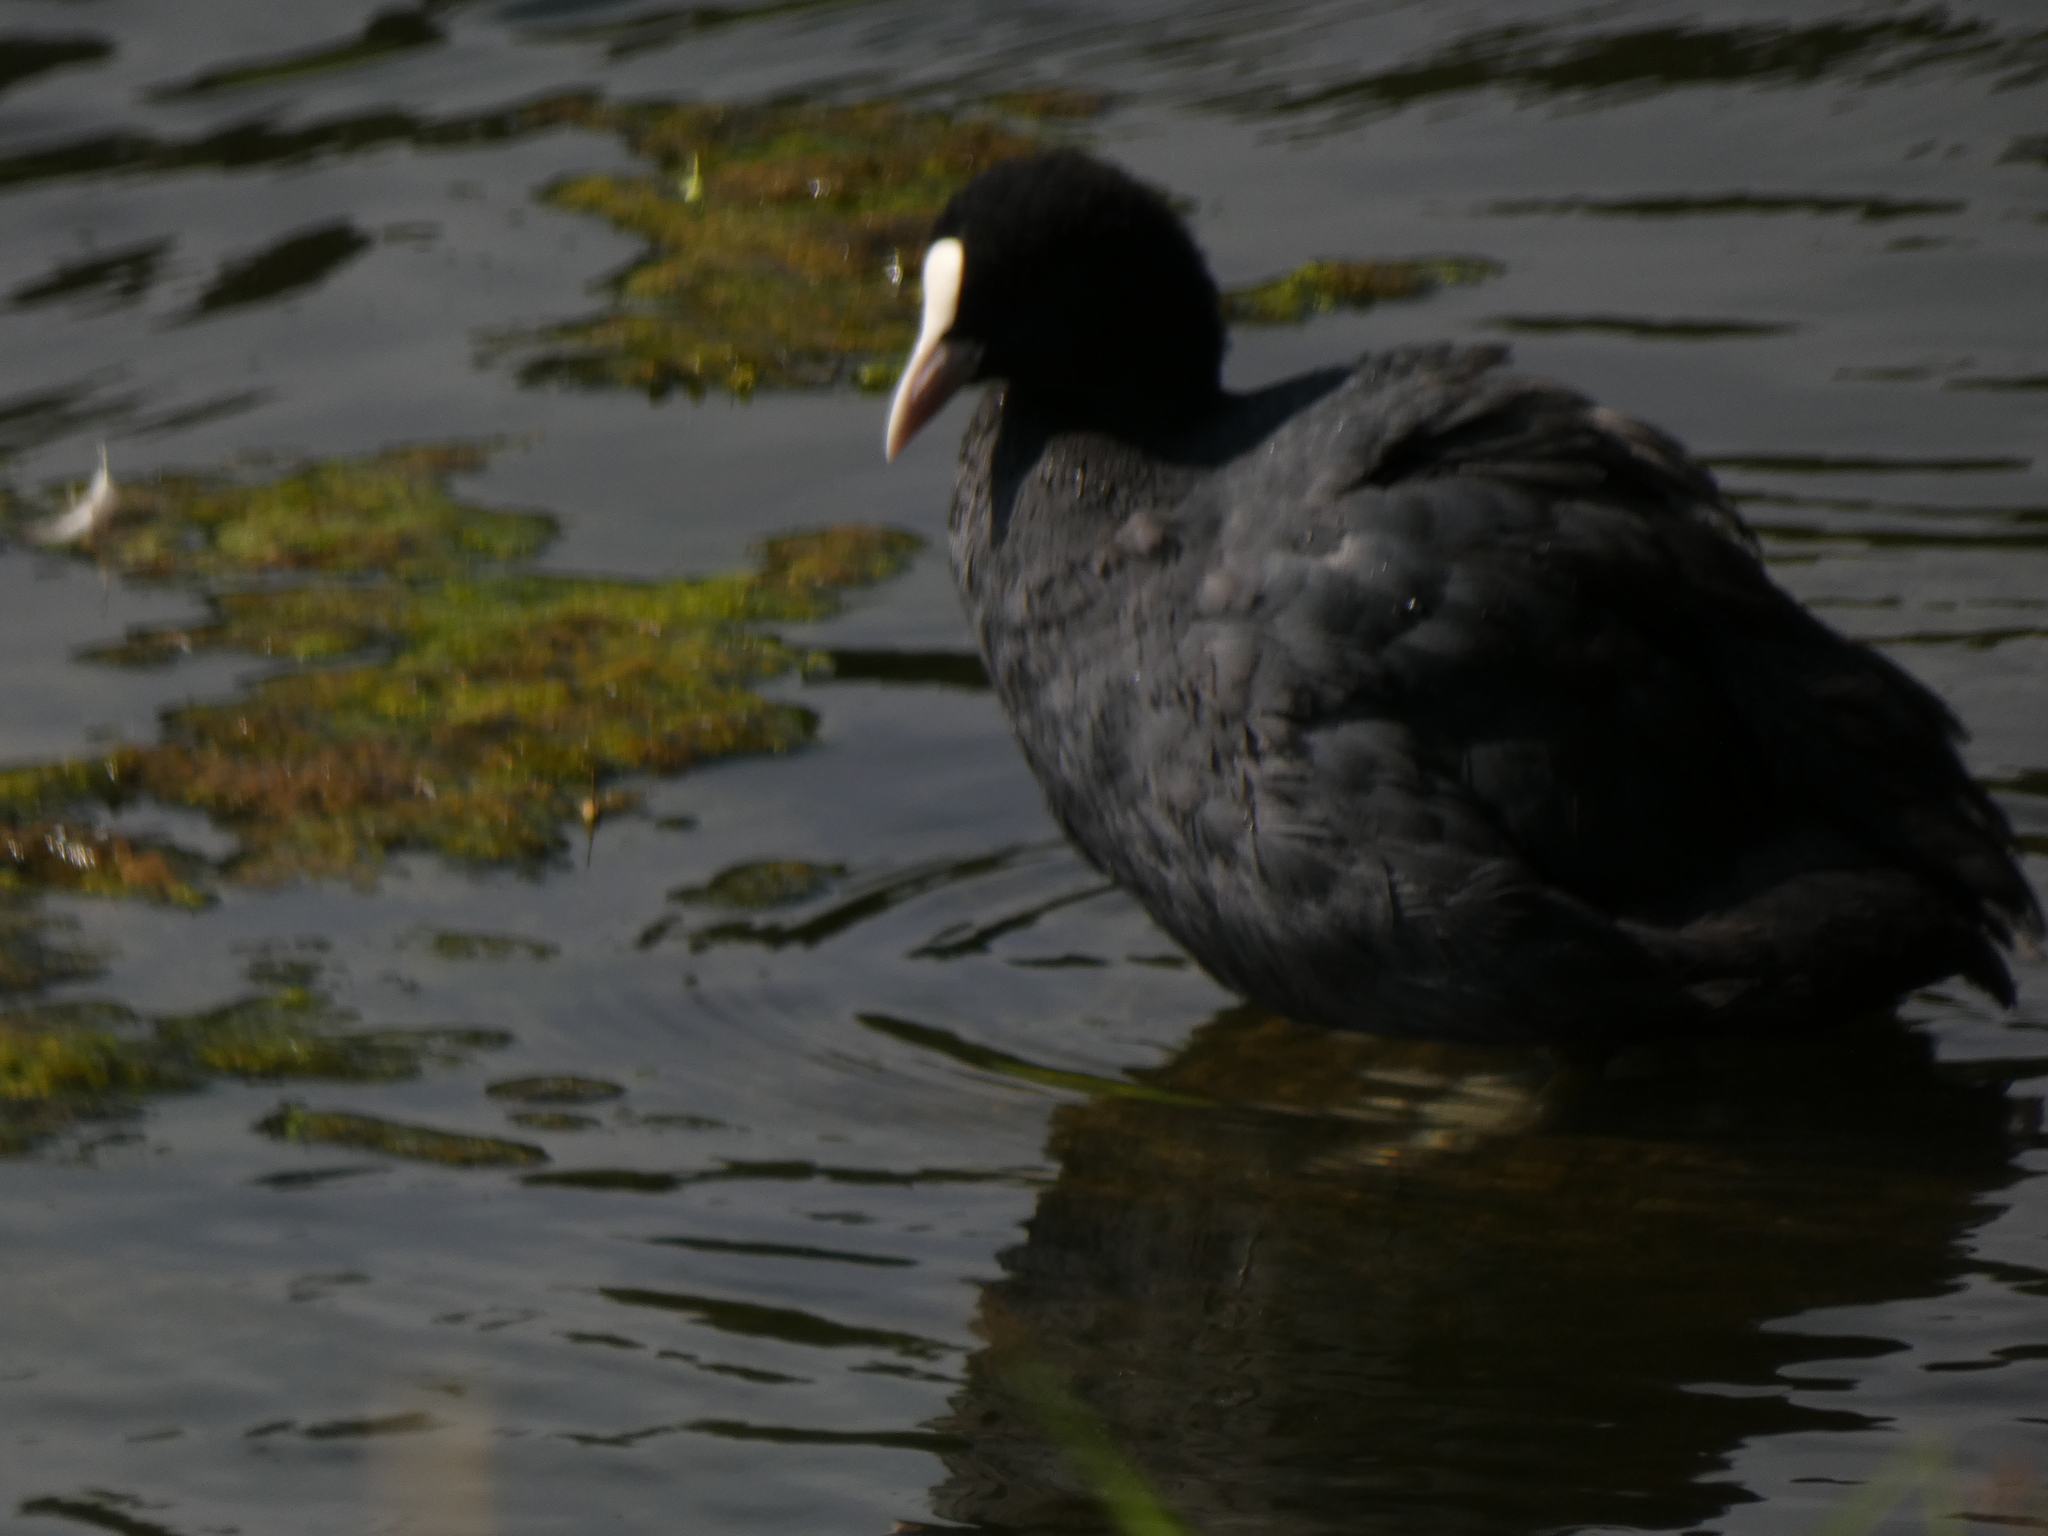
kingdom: Animalia
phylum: Chordata
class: Aves
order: Gruiformes
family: Rallidae
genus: Fulica
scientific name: Fulica atra
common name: Eurasian coot
